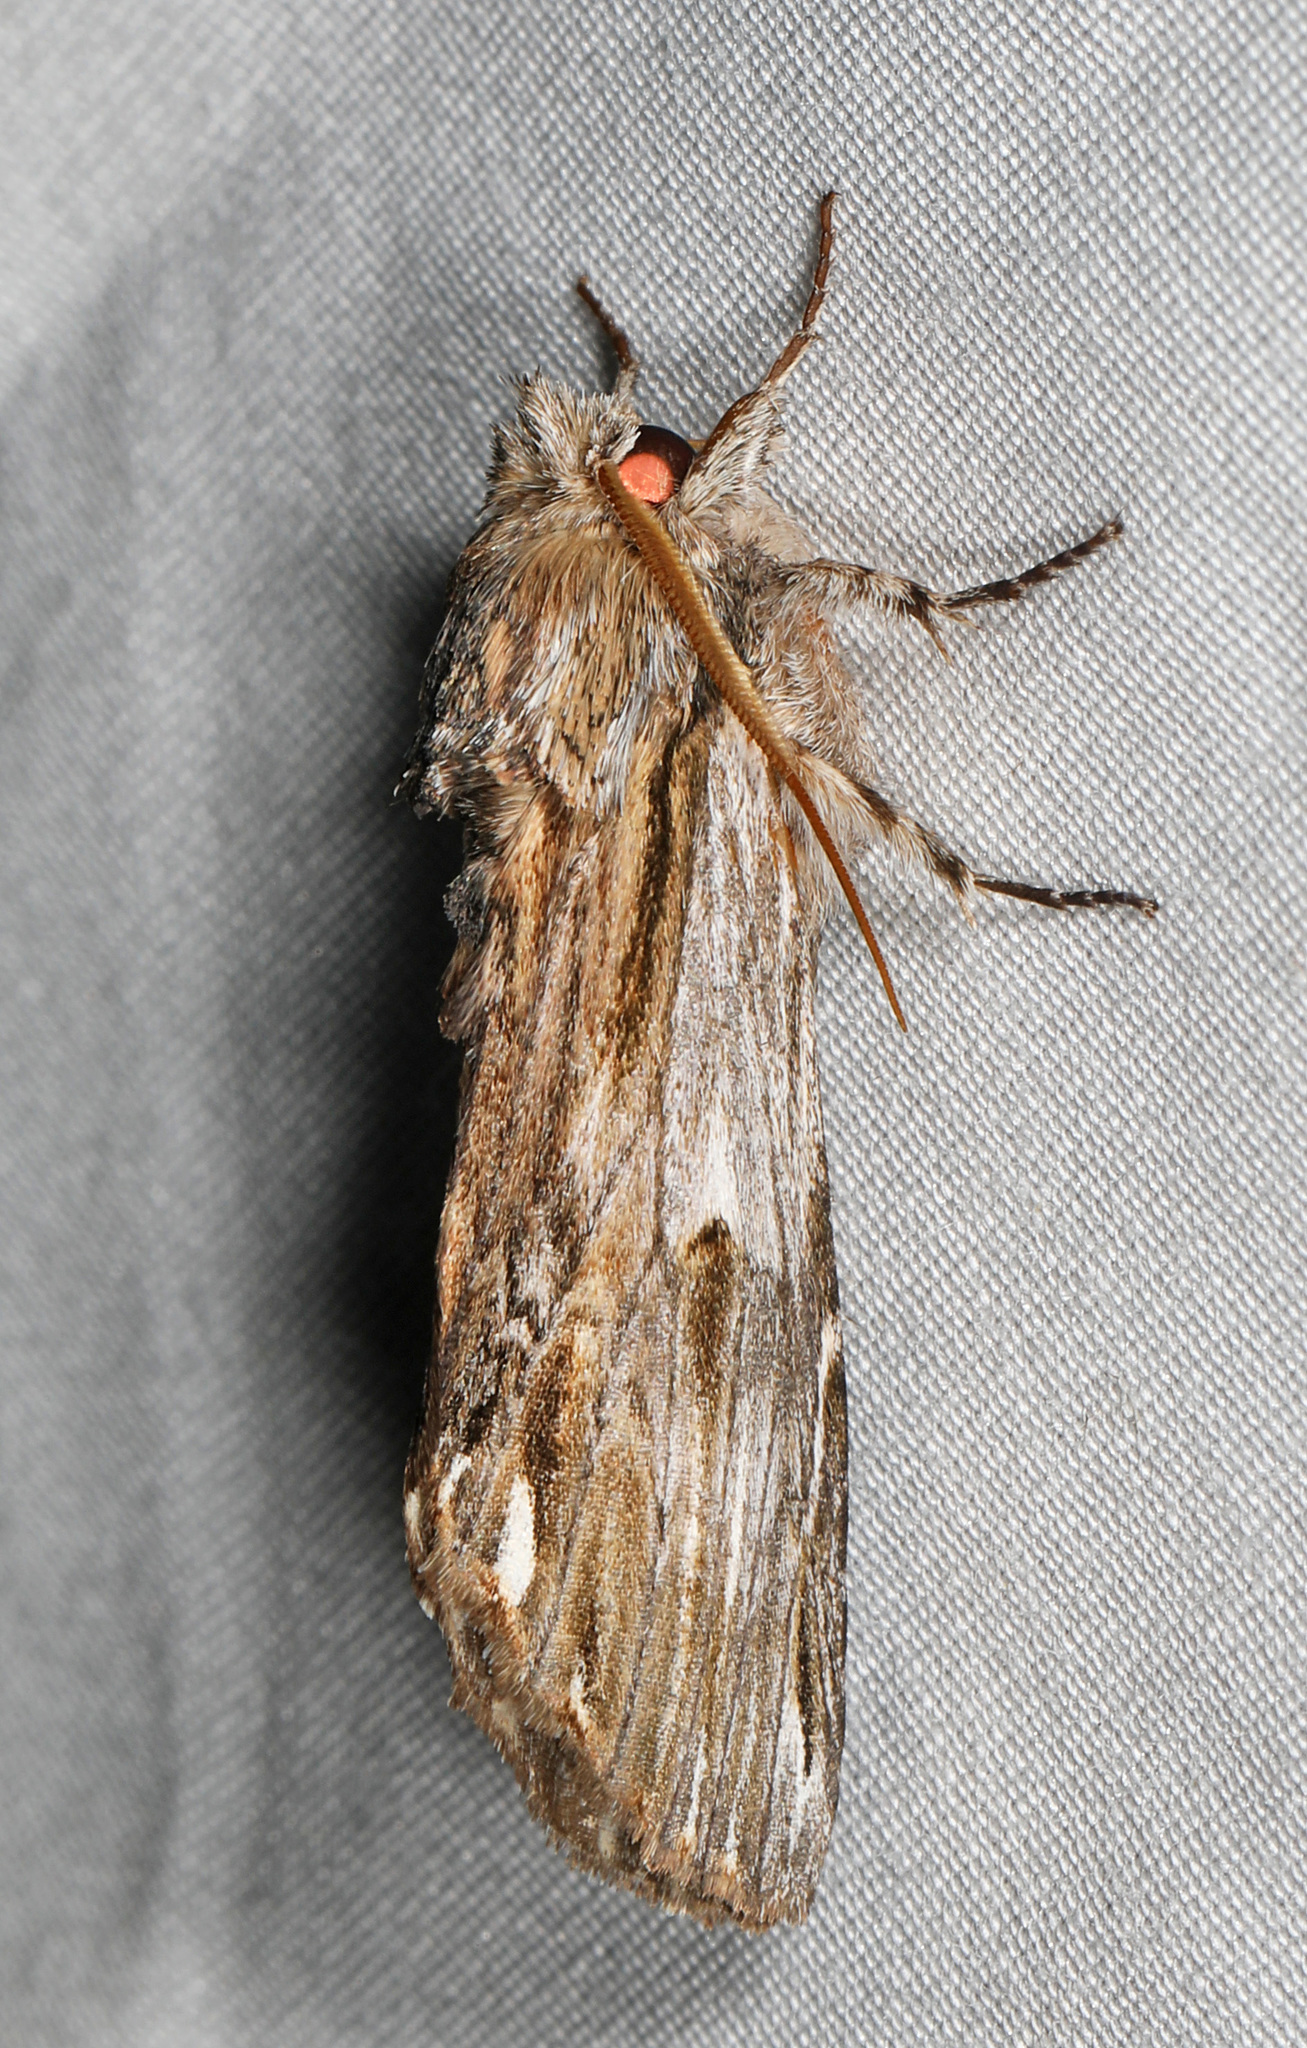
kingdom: Animalia
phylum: Arthropoda
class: Insecta
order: Lepidoptera
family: Notodontidae
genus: Oligocentria
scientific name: Oligocentria Ianassa lignicolor
